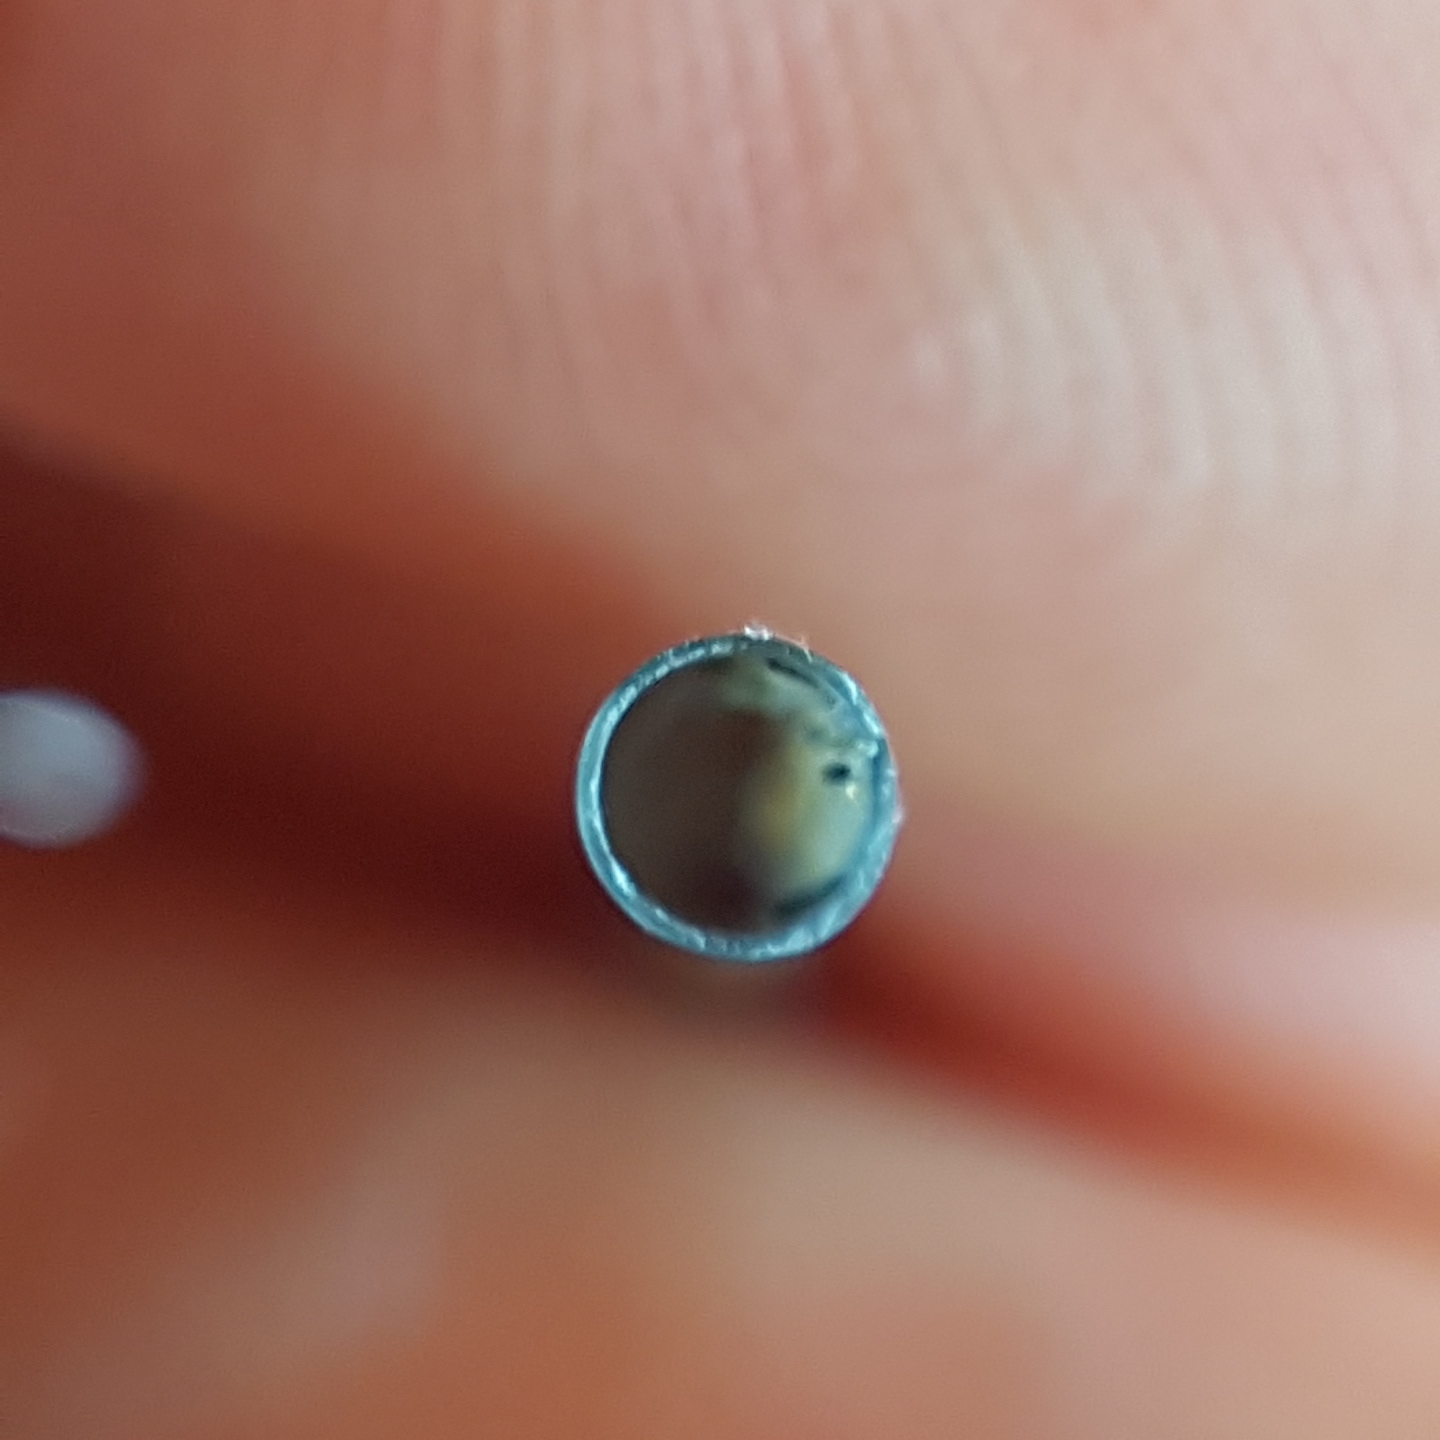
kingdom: Animalia
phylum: Mollusca
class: Scaphopoda
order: Dentaliida
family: Fustiariidae
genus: Fustiaria
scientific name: Fustiaria rubescens
